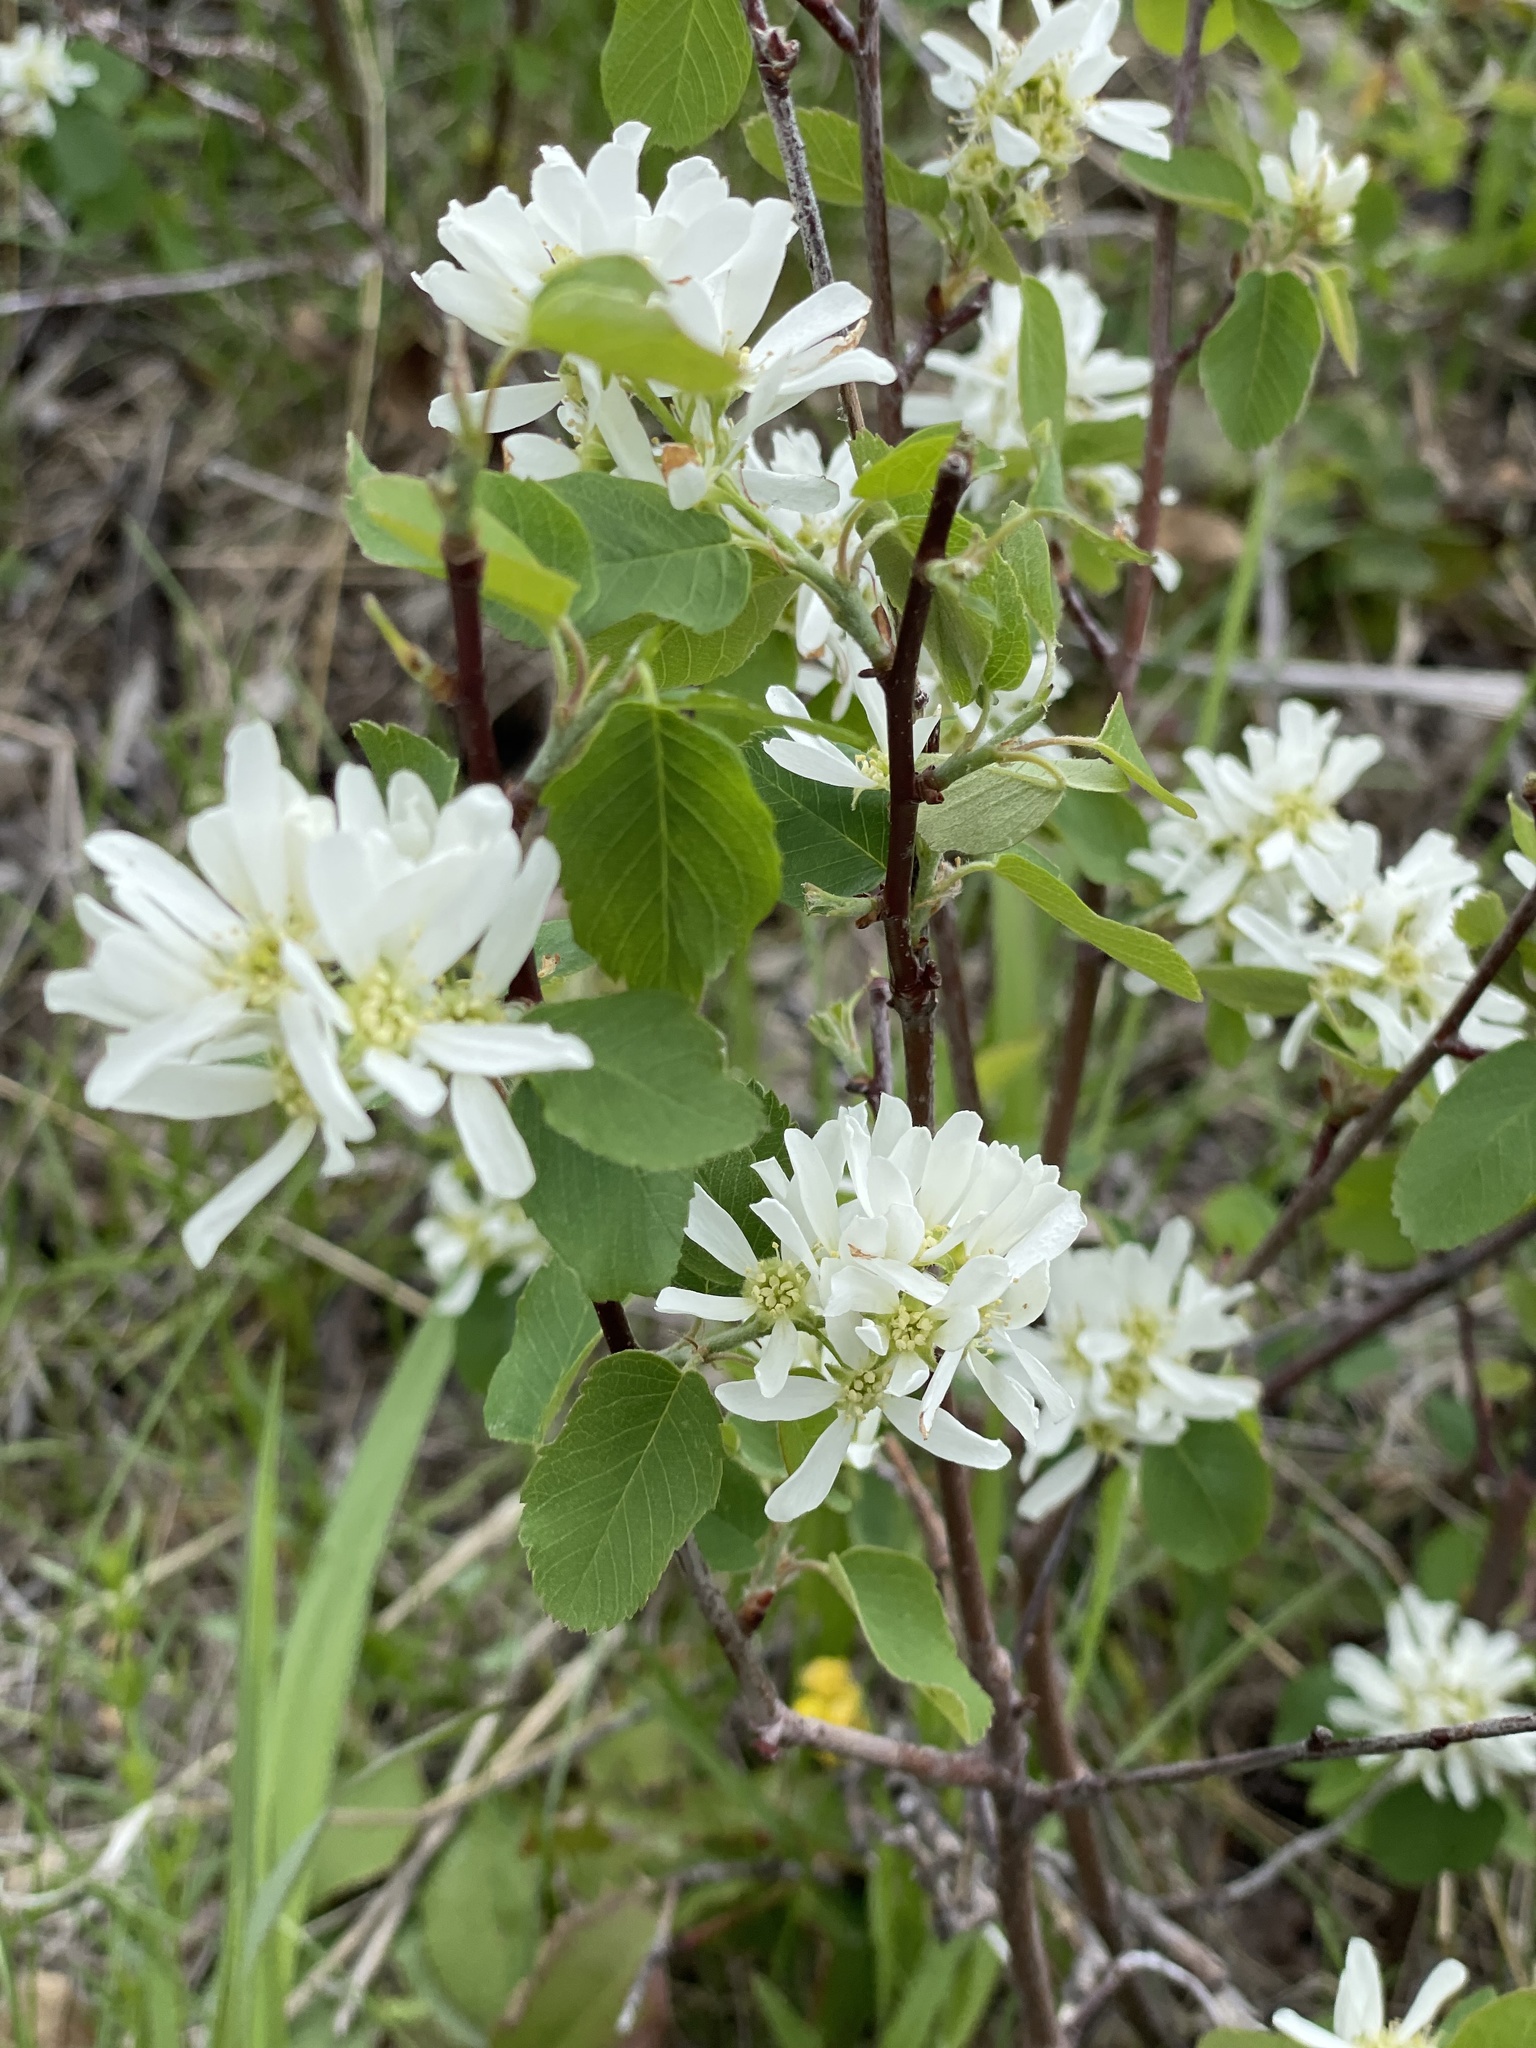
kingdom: Plantae
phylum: Tracheophyta
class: Magnoliopsida
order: Rosales
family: Rosaceae
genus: Amelanchier
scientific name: Amelanchier alnifolia
